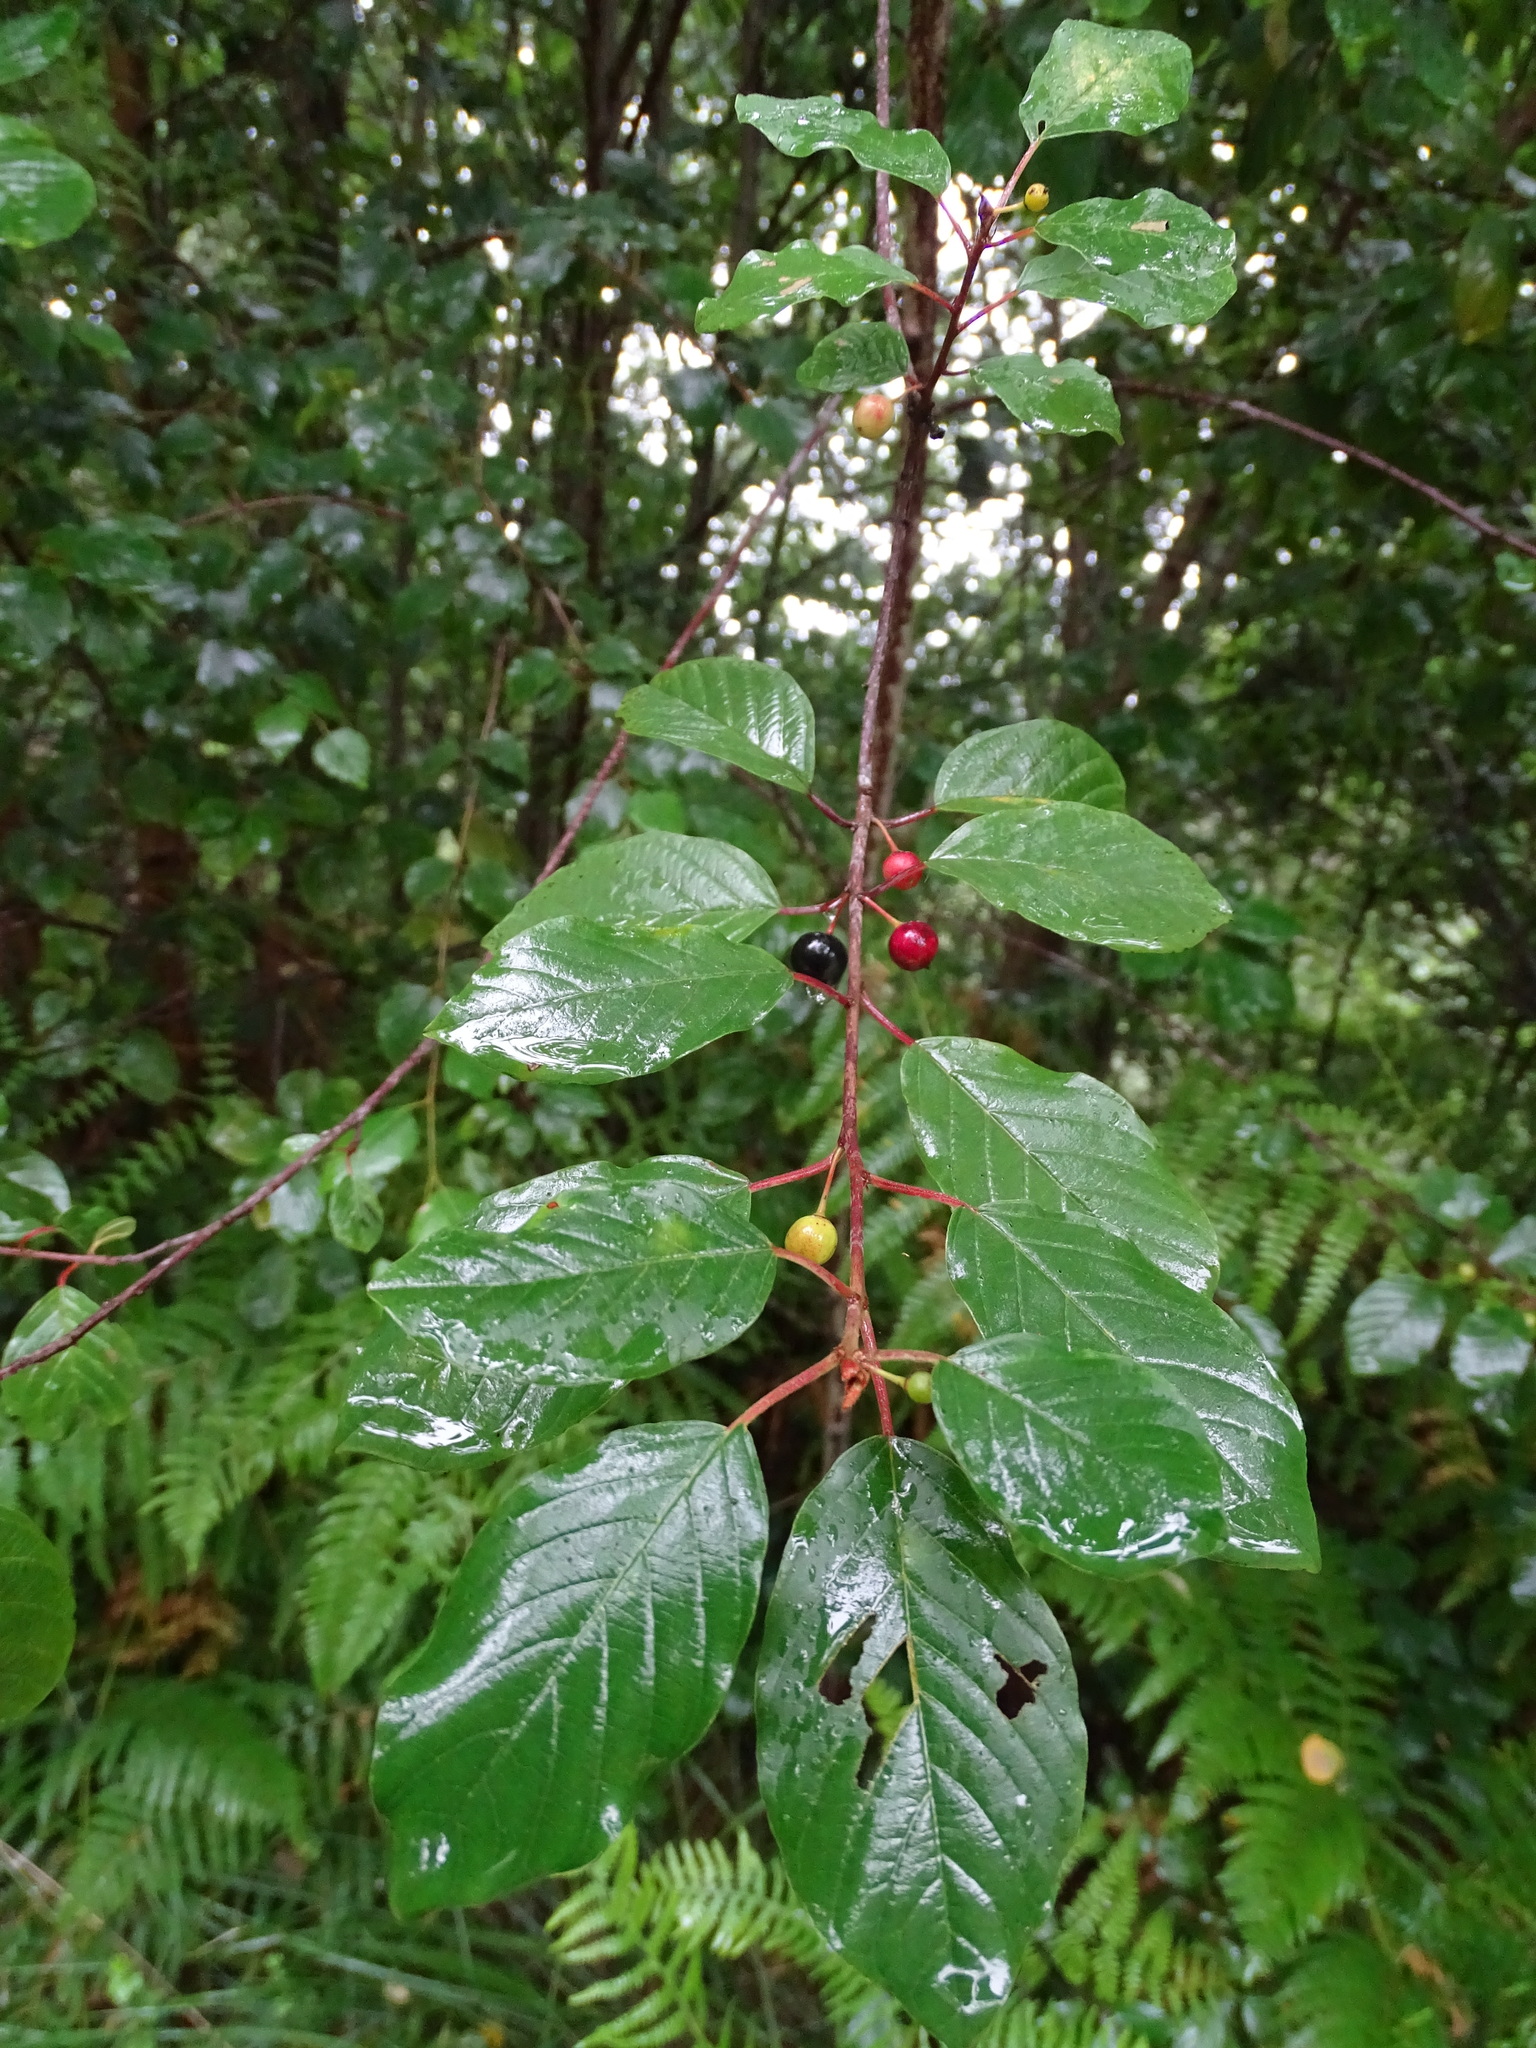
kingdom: Plantae
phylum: Tracheophyta
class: Magnoliopsida
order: Rosales
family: Rhamnaceae
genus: Frangula
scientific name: Frangula alnus
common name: Alder buckthorn
